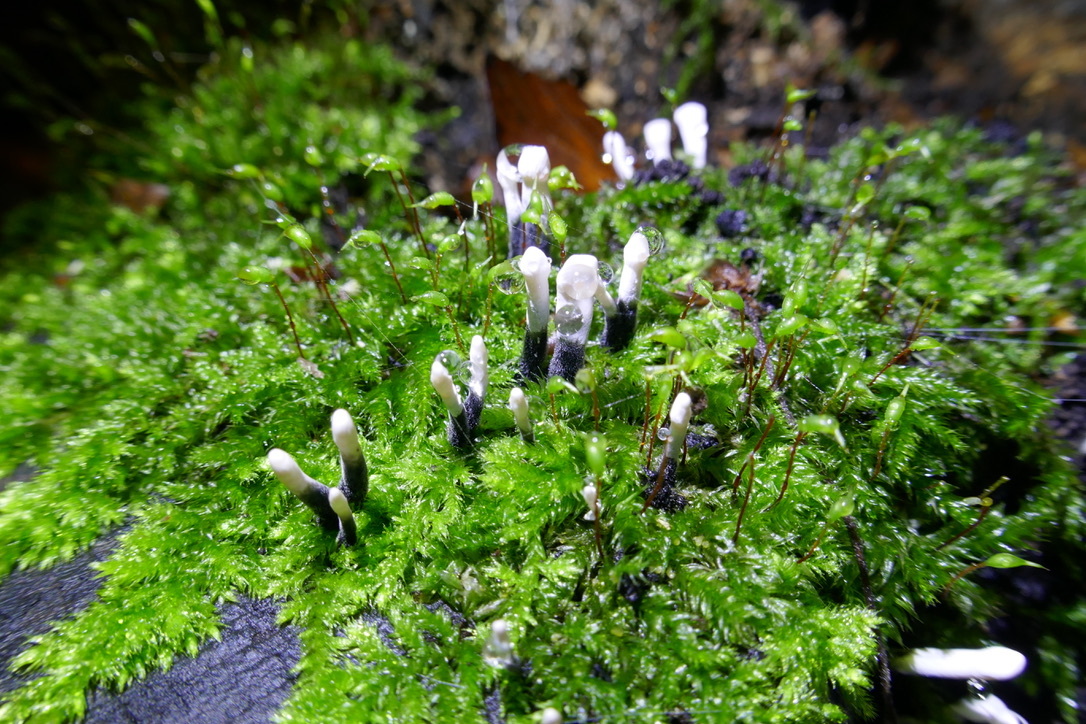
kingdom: Fungi
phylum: Ascomycota
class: Sordariomycetes
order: Xylariales
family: Xylariaceae
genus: Xylaria
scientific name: Xylaria hypoxylon
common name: Candle-snuff fungus
